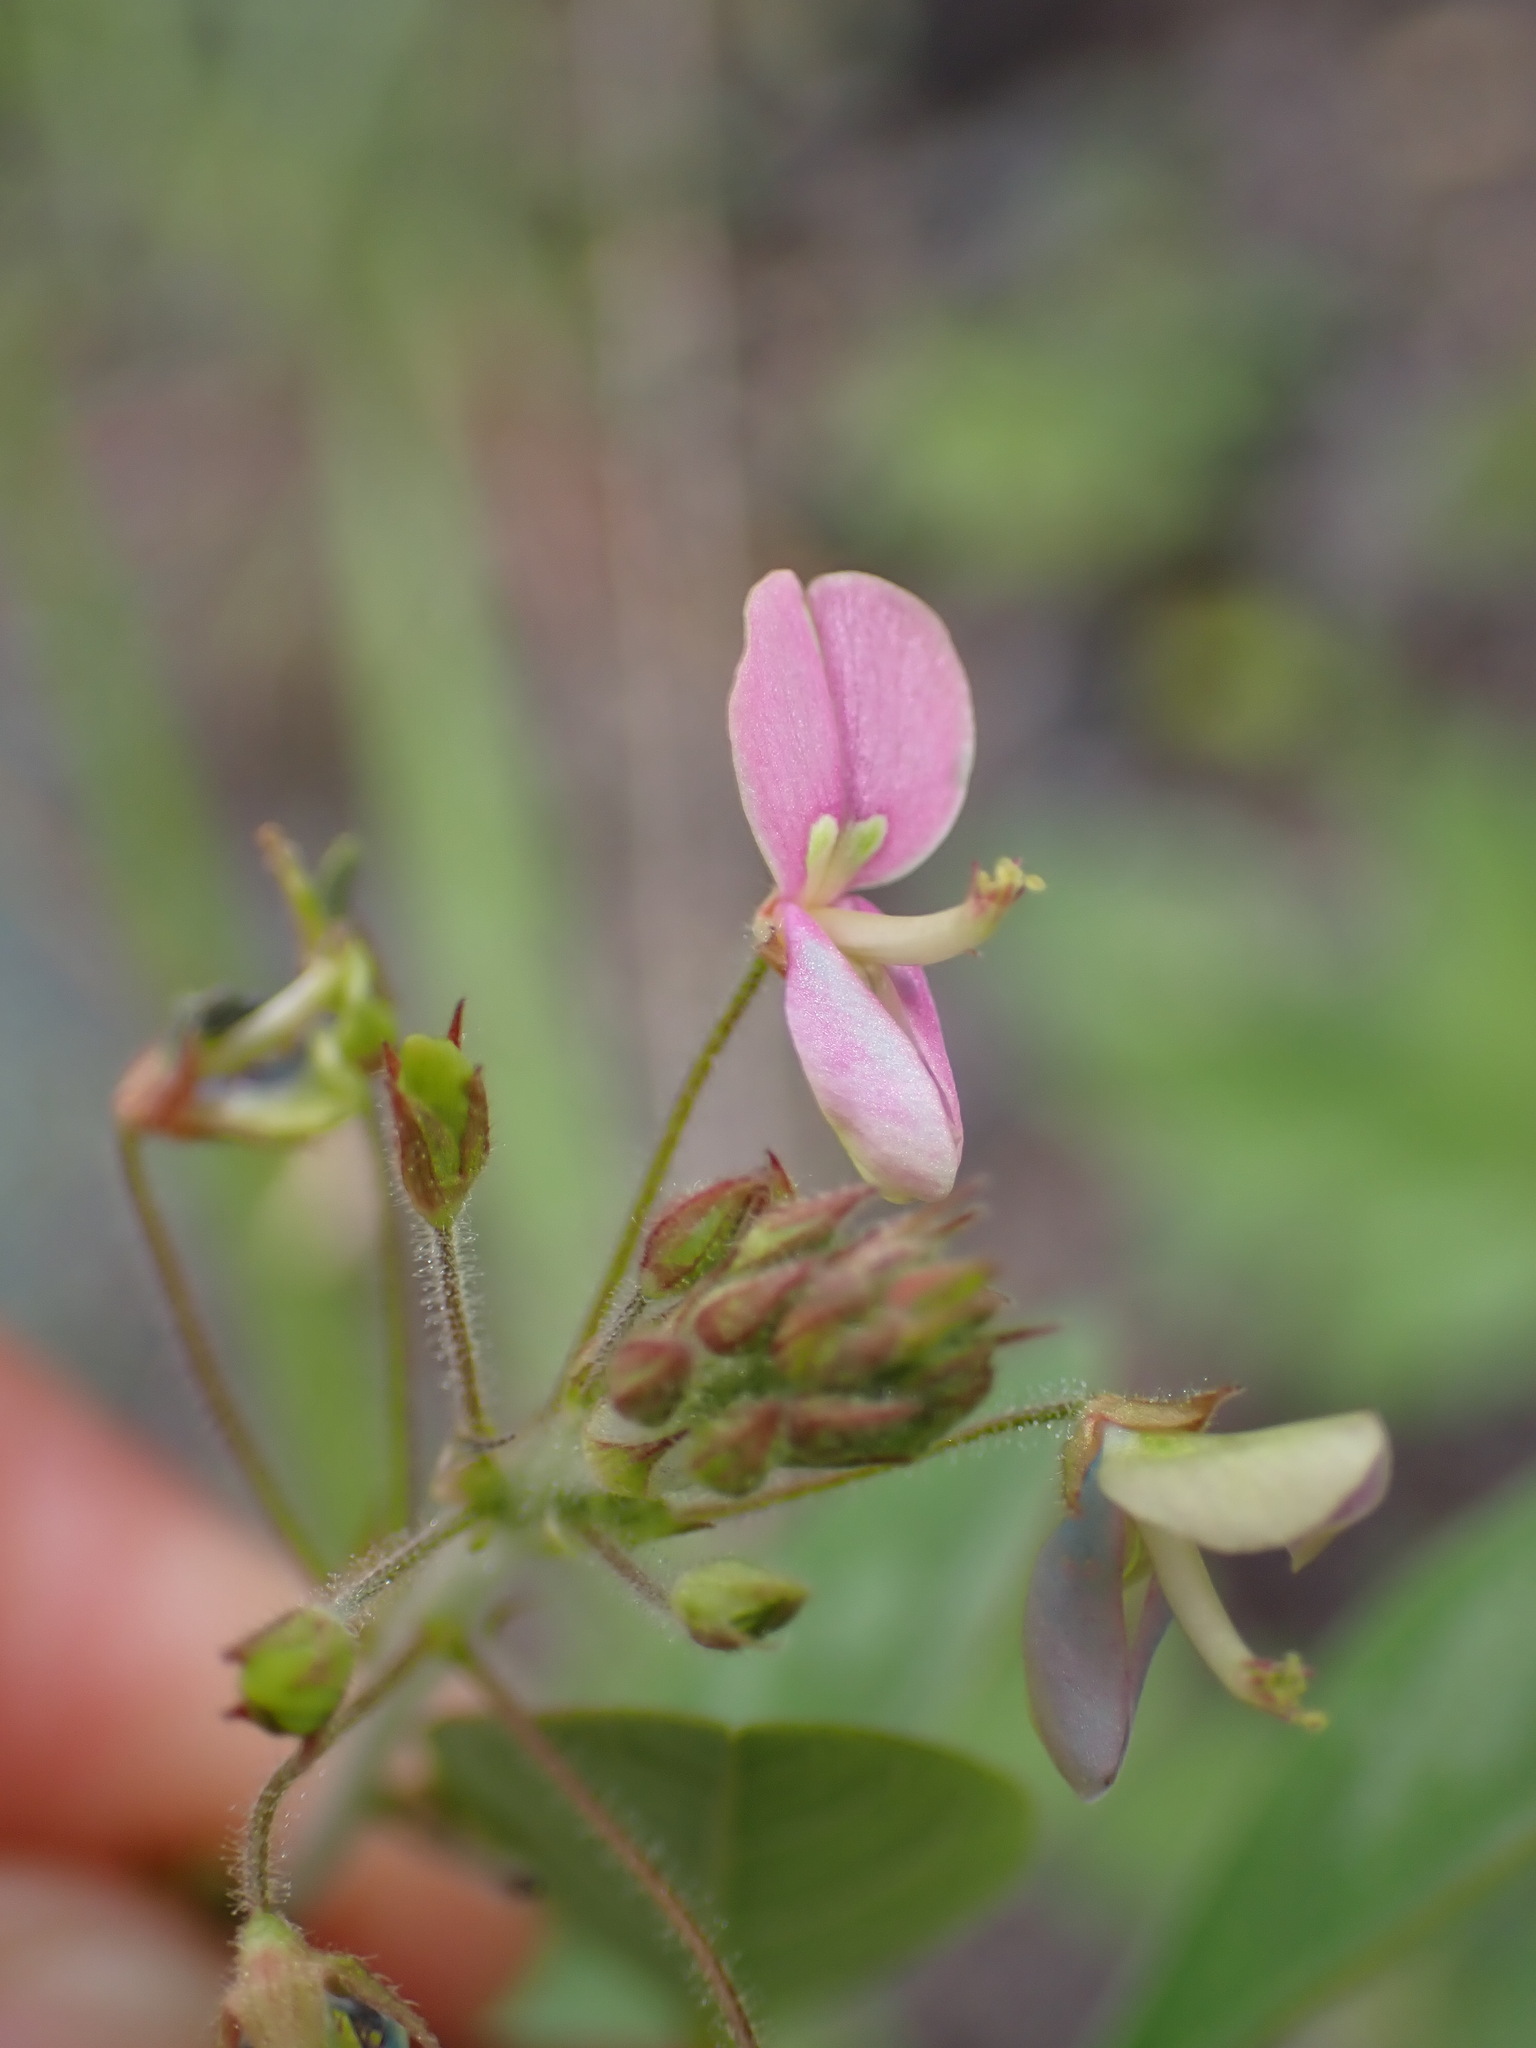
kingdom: Plantae
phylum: Tracheophyta
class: Magnoliopsida
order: Fabales
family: Fabaceae
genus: Desmodium
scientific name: Desmodium tortuosum
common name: Dixie ticktrefoil
